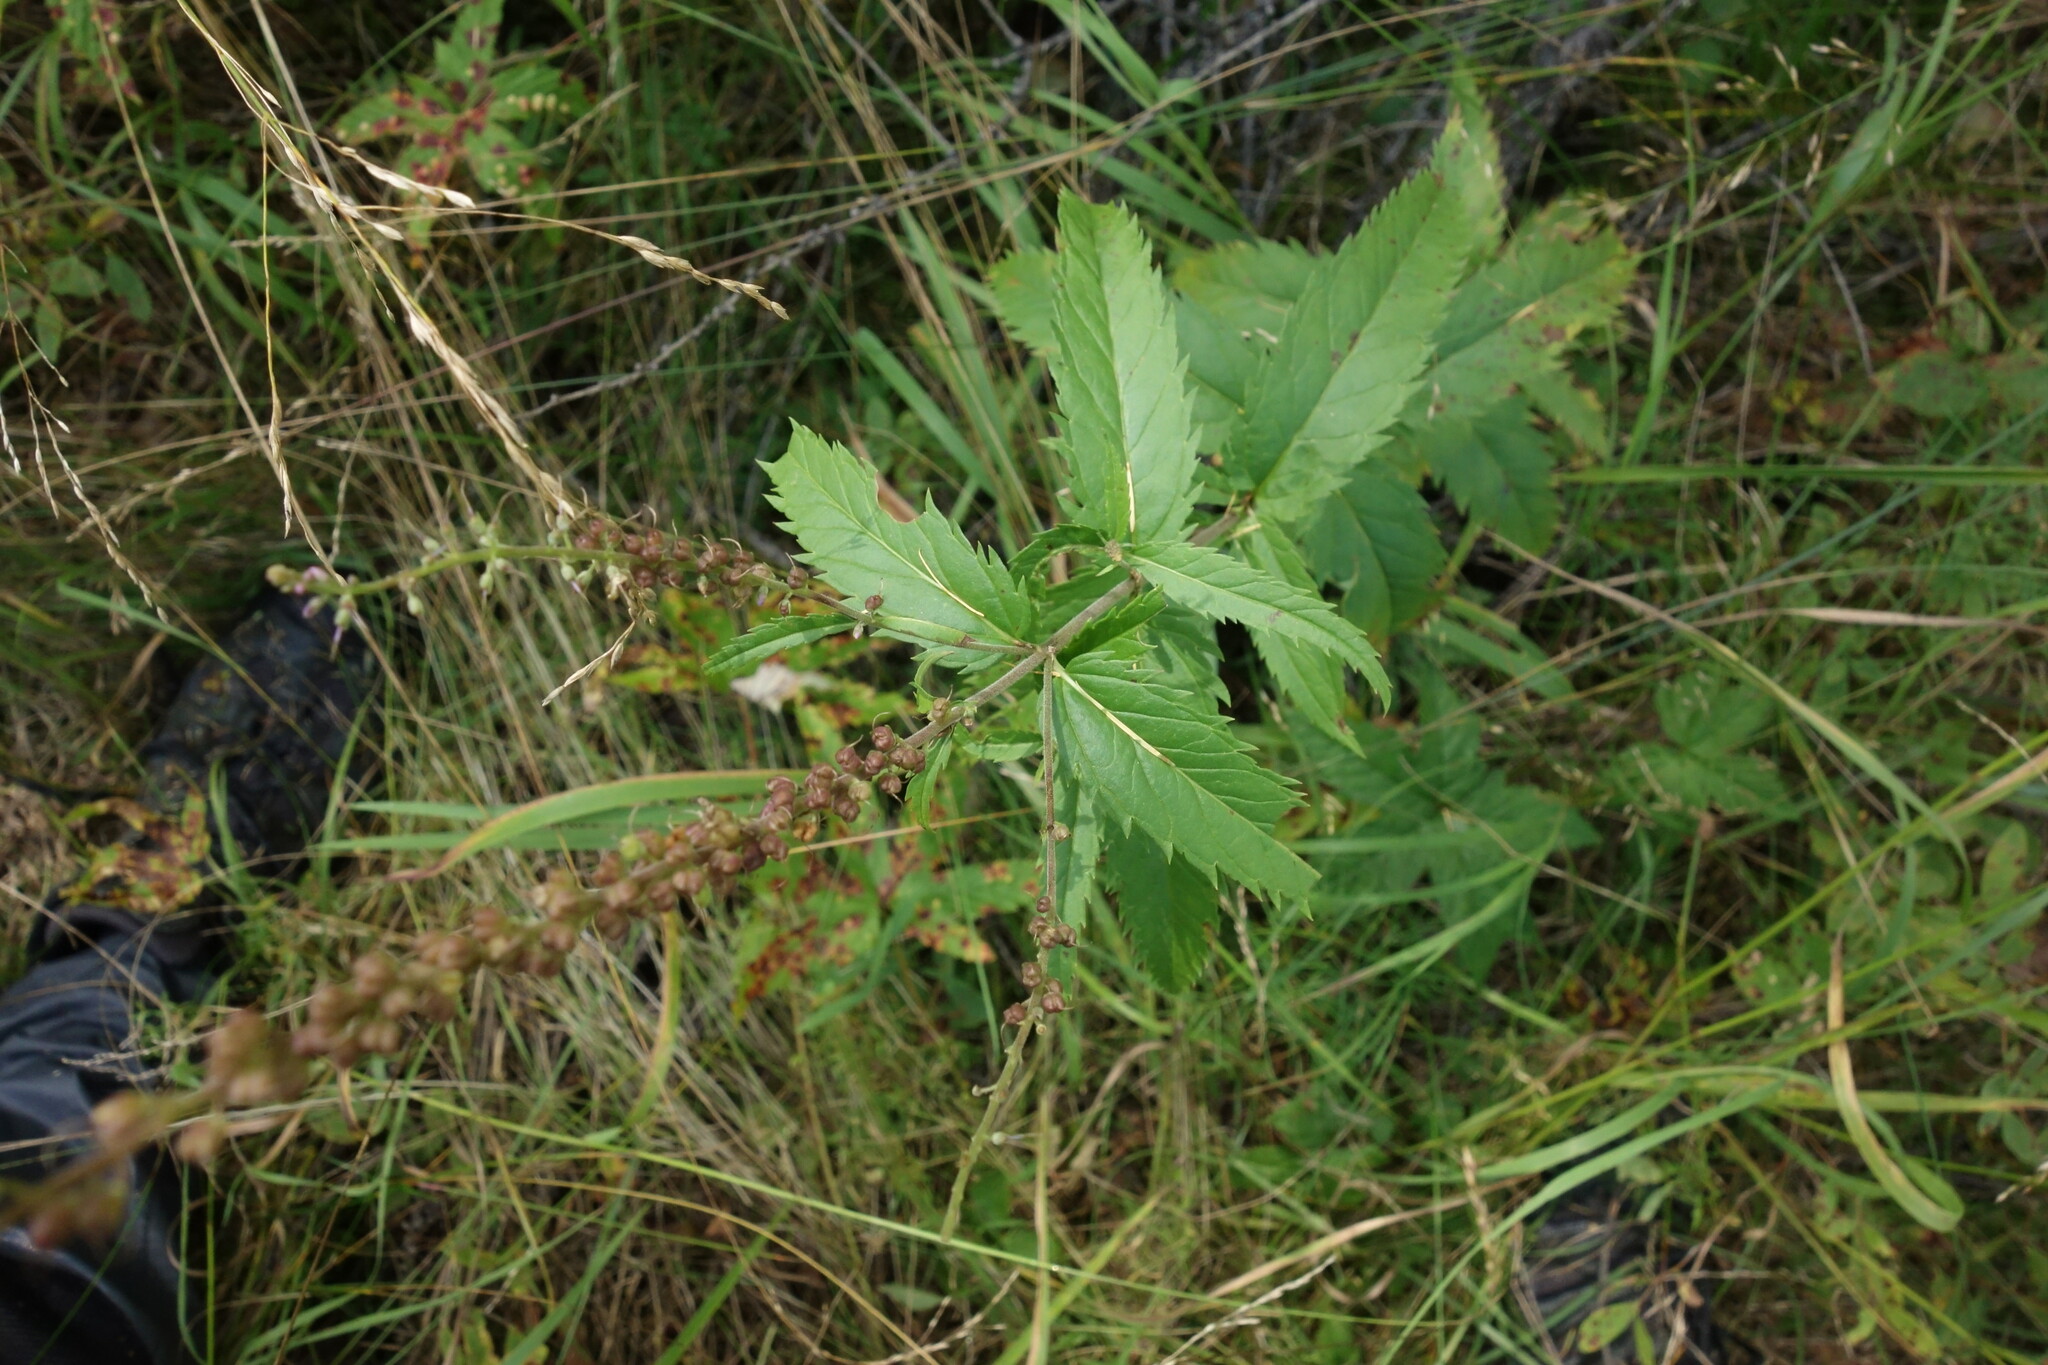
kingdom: Plantae
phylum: Tracheophyta
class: Magnoliopsida
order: Lamiales
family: Plantaginaceae
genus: Veronica
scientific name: Veronica longifolia
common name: Garden speedwell
